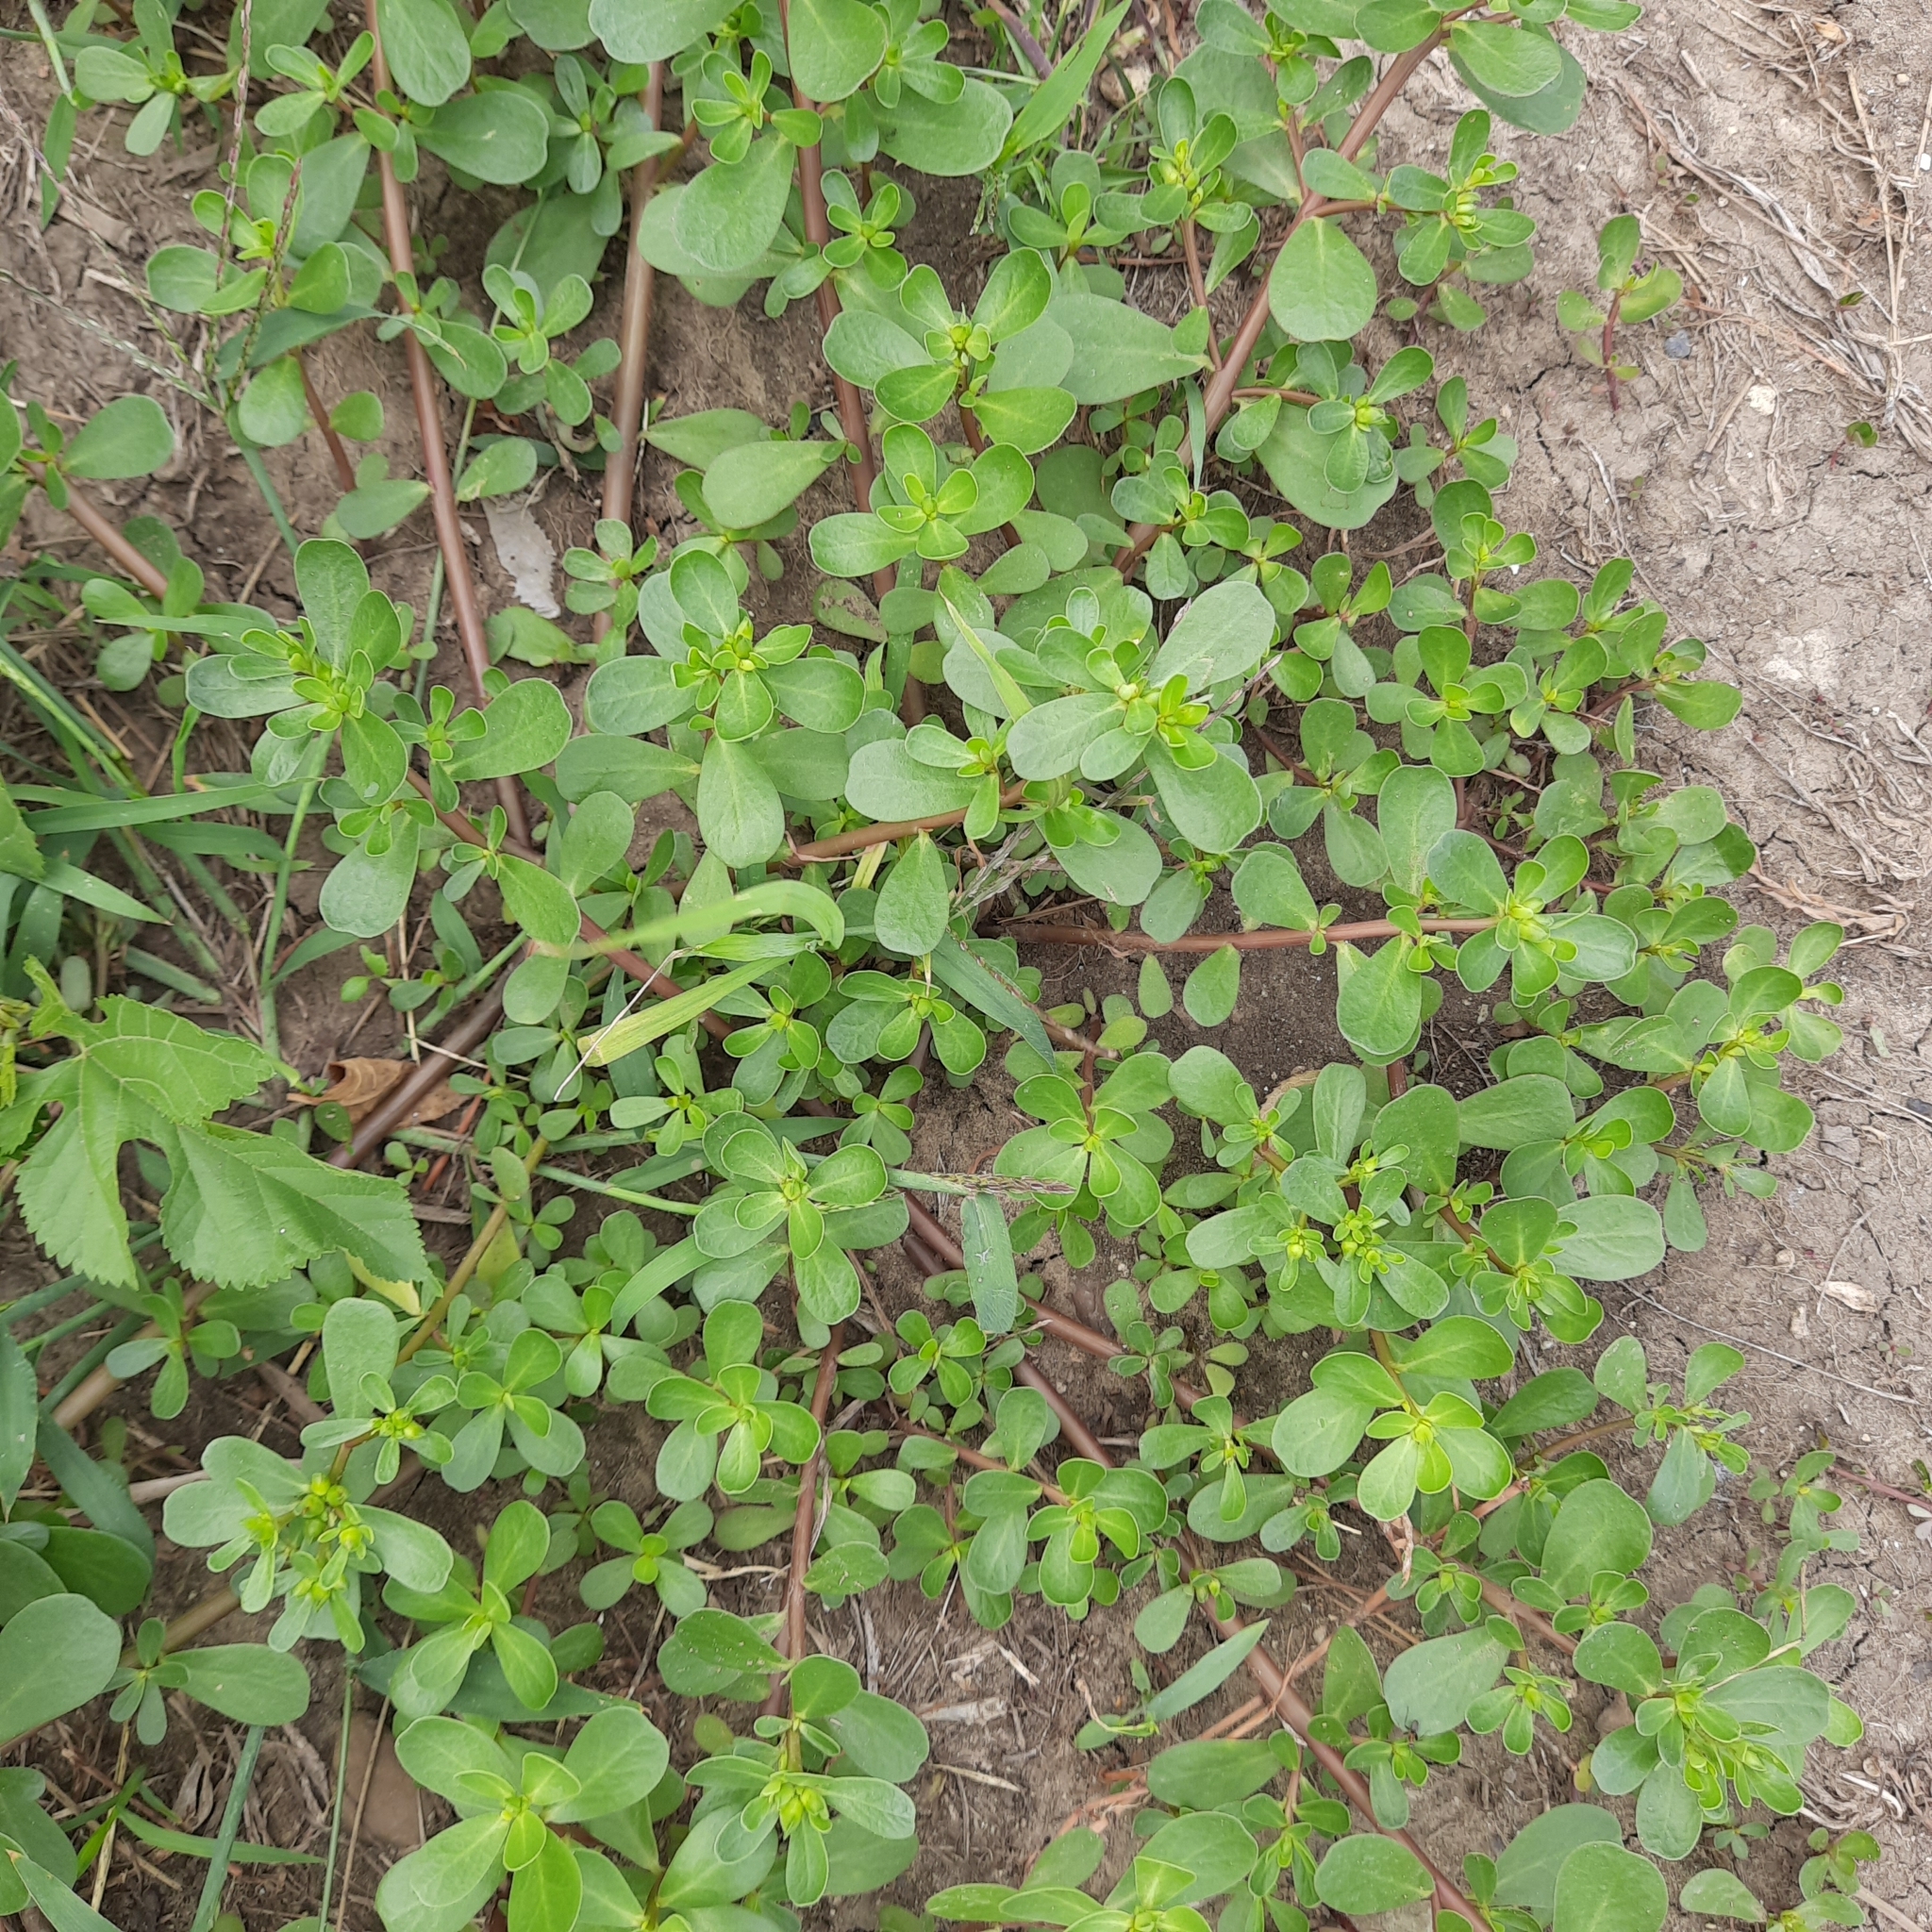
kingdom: Plantae
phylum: Tracheophyta
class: Magnoliopsida
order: Caryophyllales
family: Portulacaceae
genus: Portulaca
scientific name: Portulaca oleracea
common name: Common purslane
